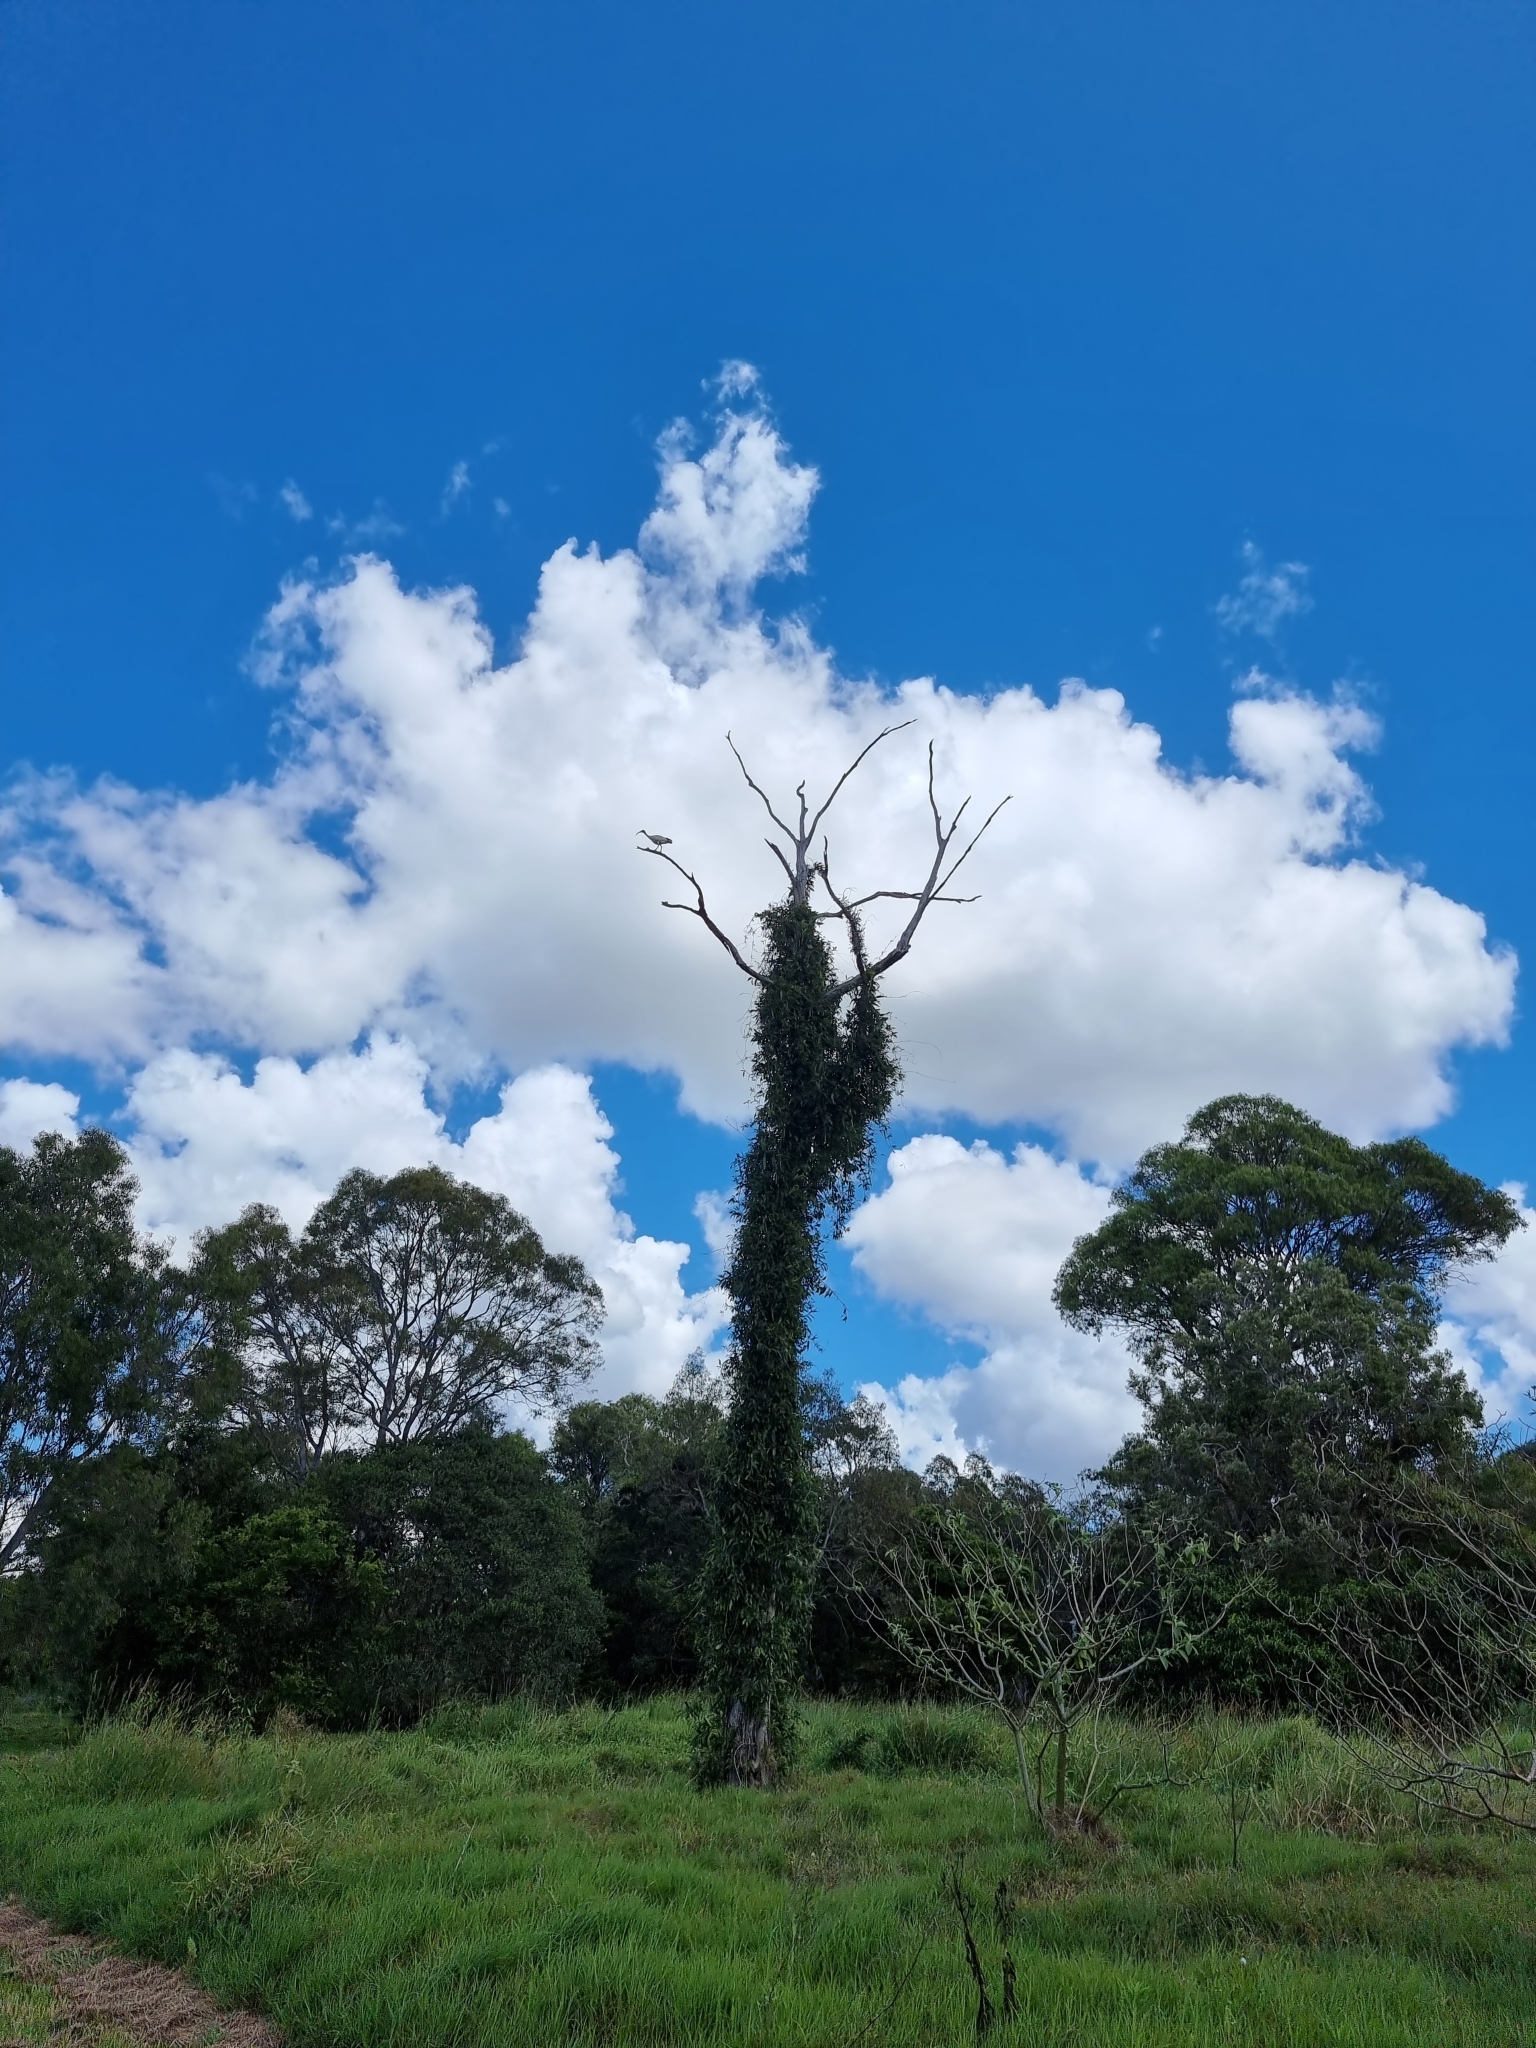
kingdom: Animalia
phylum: Chordata
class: Aves
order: Pelecaniformes
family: Threskiornithidae
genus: Threskiornis
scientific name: Threskiornis molucca
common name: Australian white ibis
